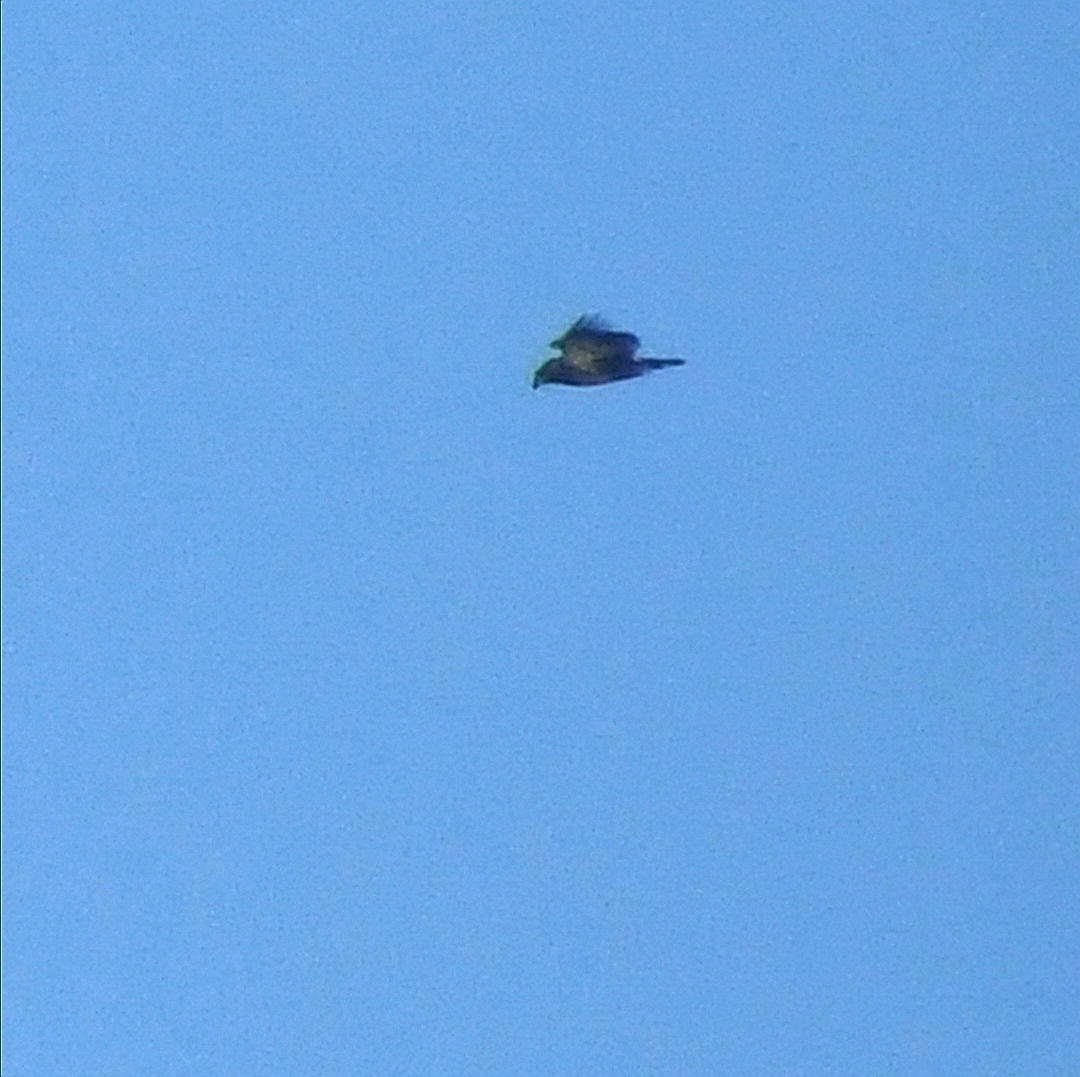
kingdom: Animalia
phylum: Chordata
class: Aves
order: Accipitriformes
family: Accipitridae
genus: Haliaeetus
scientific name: Haliaeetus leucocephalus
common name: Bald eagle
